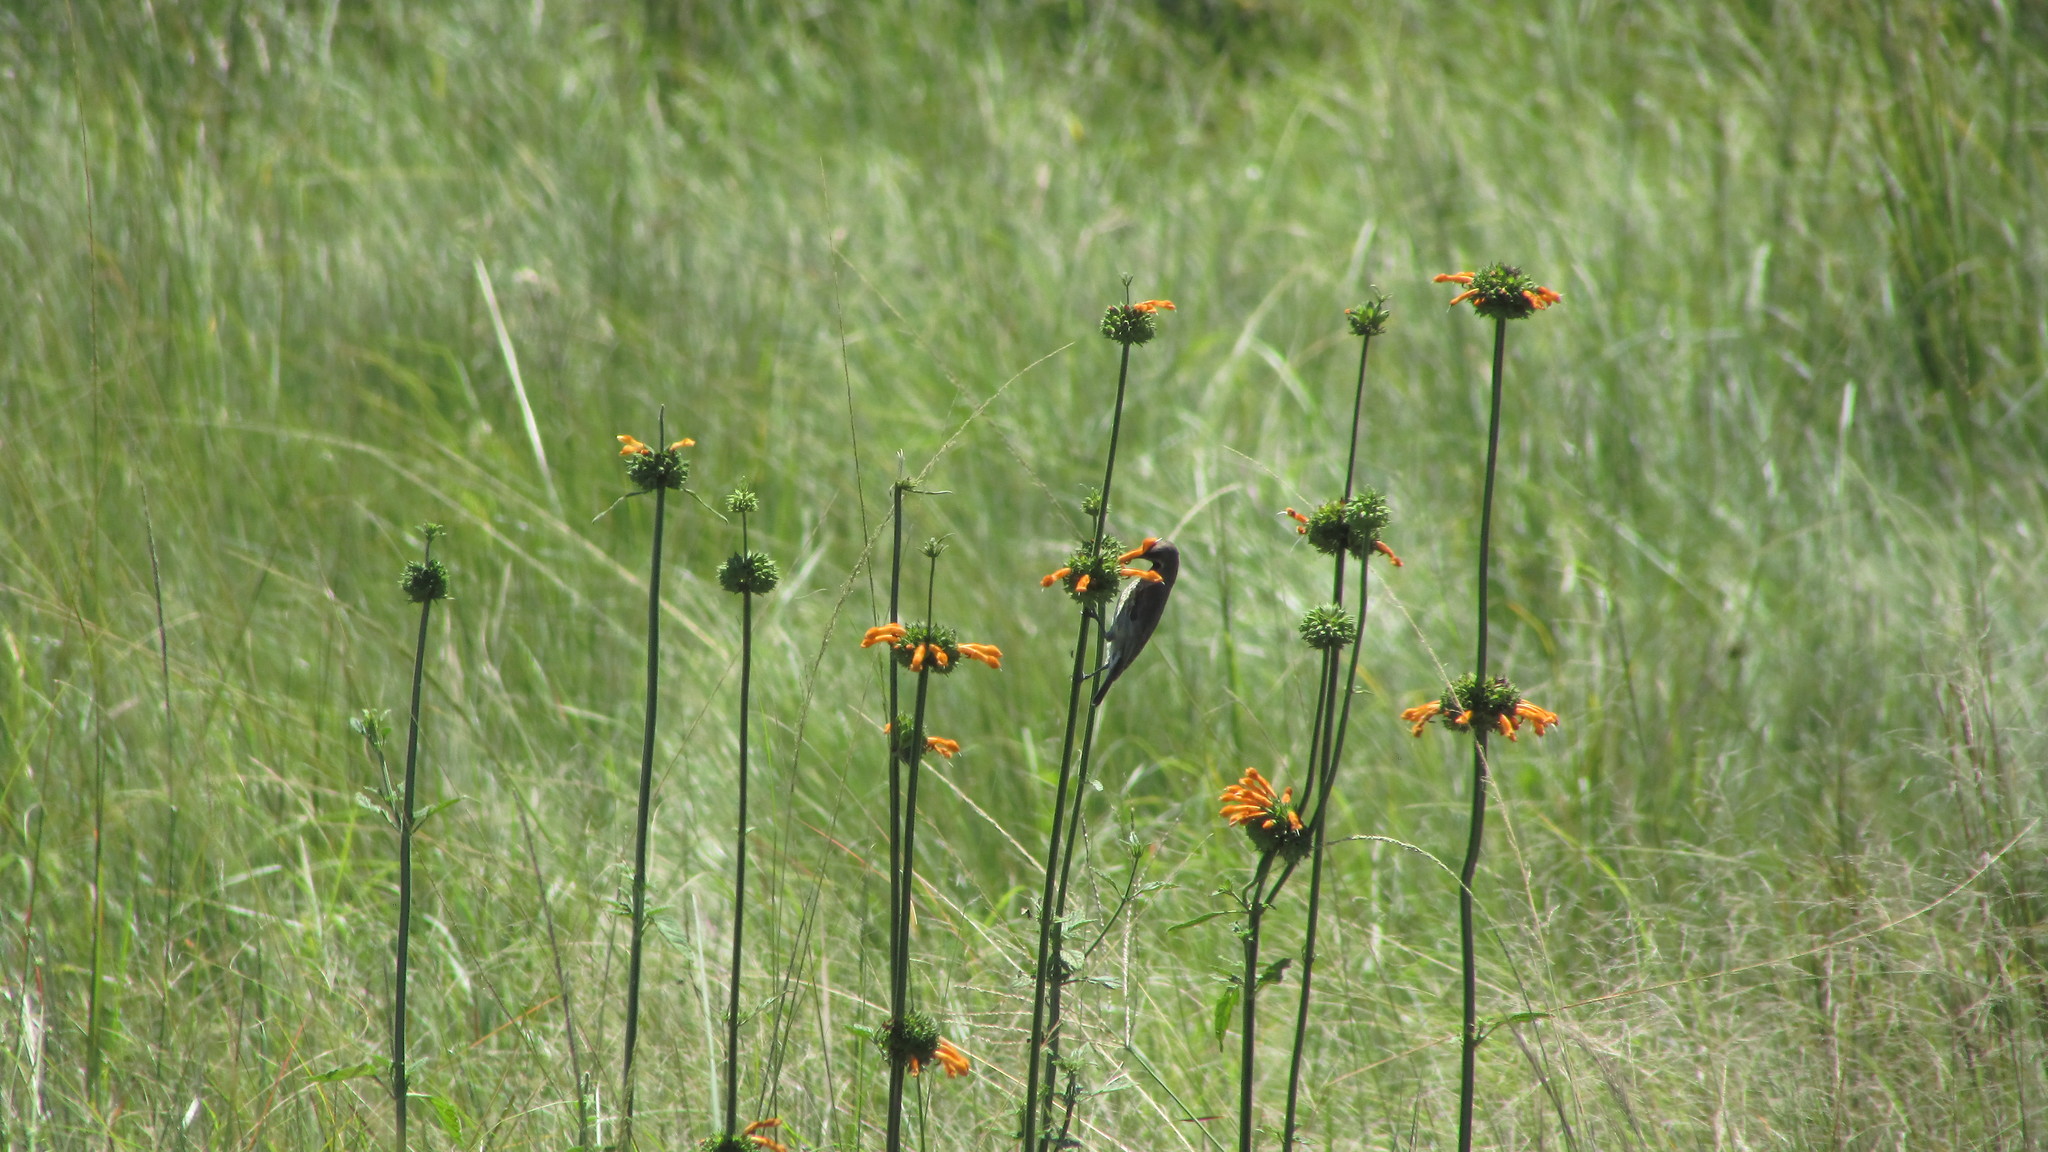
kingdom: Animalia
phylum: Chordata
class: Aves
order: Passeriformes
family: Nectariniidae
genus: Chalcomitra
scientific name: Chalcomitra amethystina
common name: Amethyst sunbird
